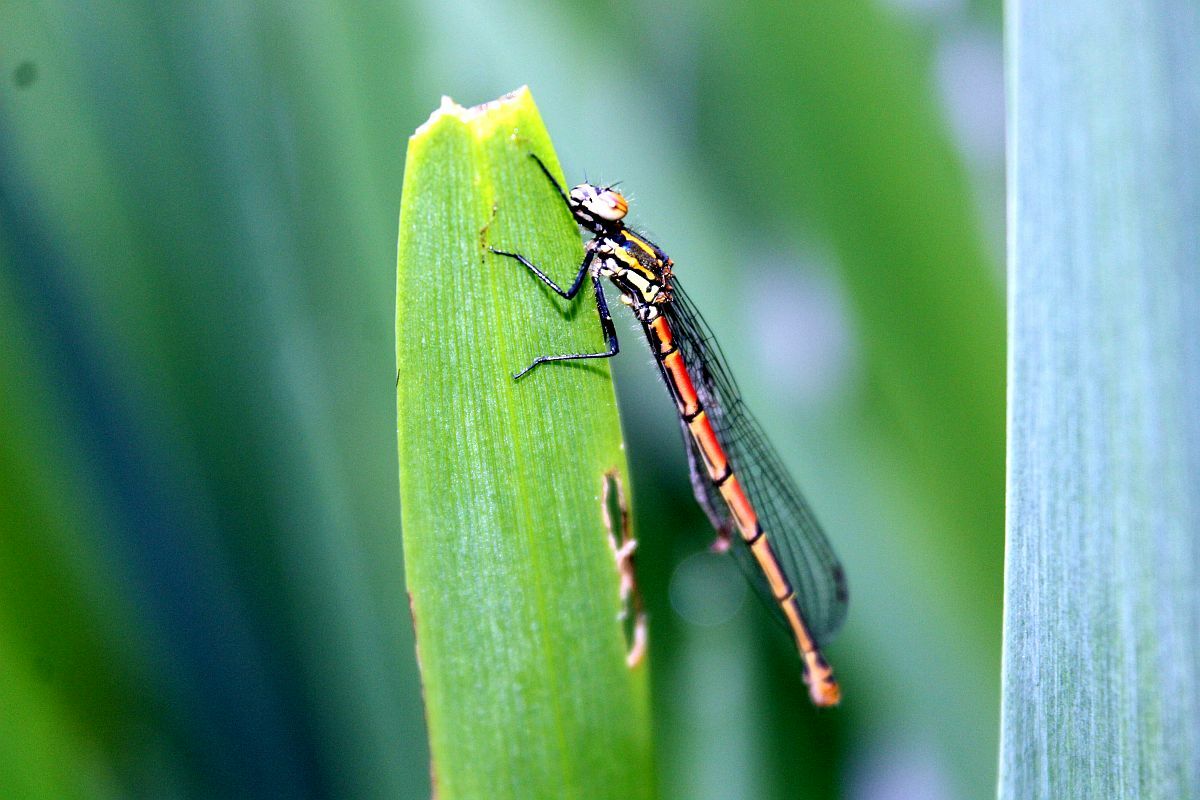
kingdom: Animalia
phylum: Arthropoda
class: Insecta
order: Odonata
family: Coenagrionidae
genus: Pyrrhosoma
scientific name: Pyrrhosoma nymphula
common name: Large red damsel
